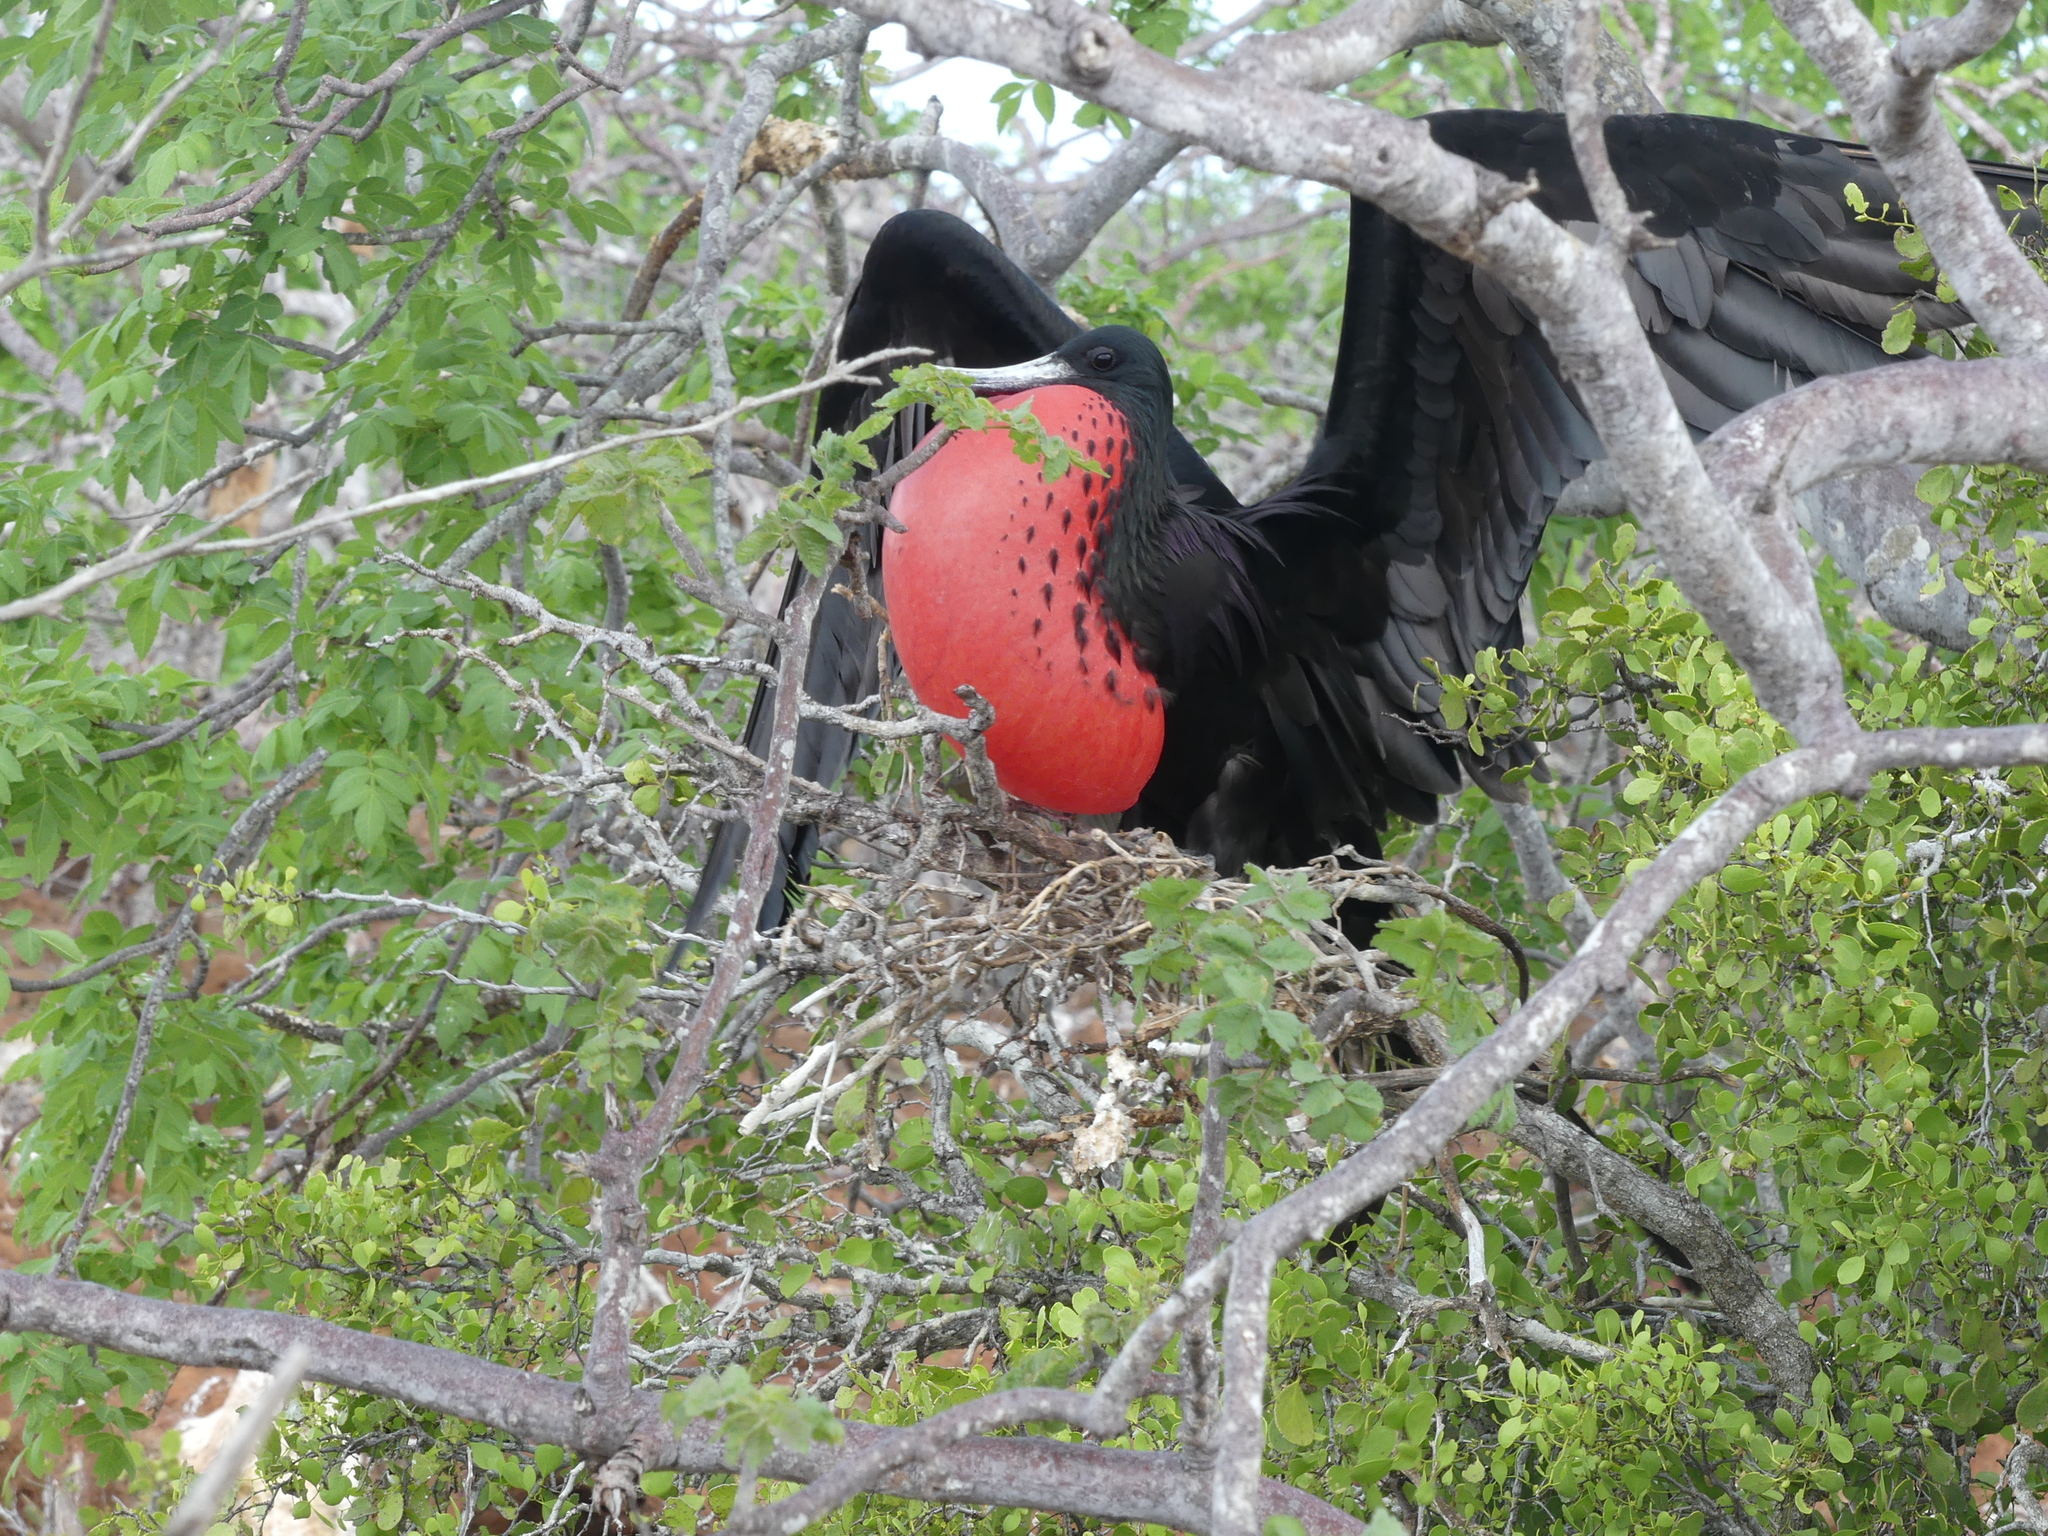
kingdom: Animalia
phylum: Chordata
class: Aves
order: Suliformes
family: Fregatidae
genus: Fregata
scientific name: Fregata magnificens
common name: Magnificent frigatebird
